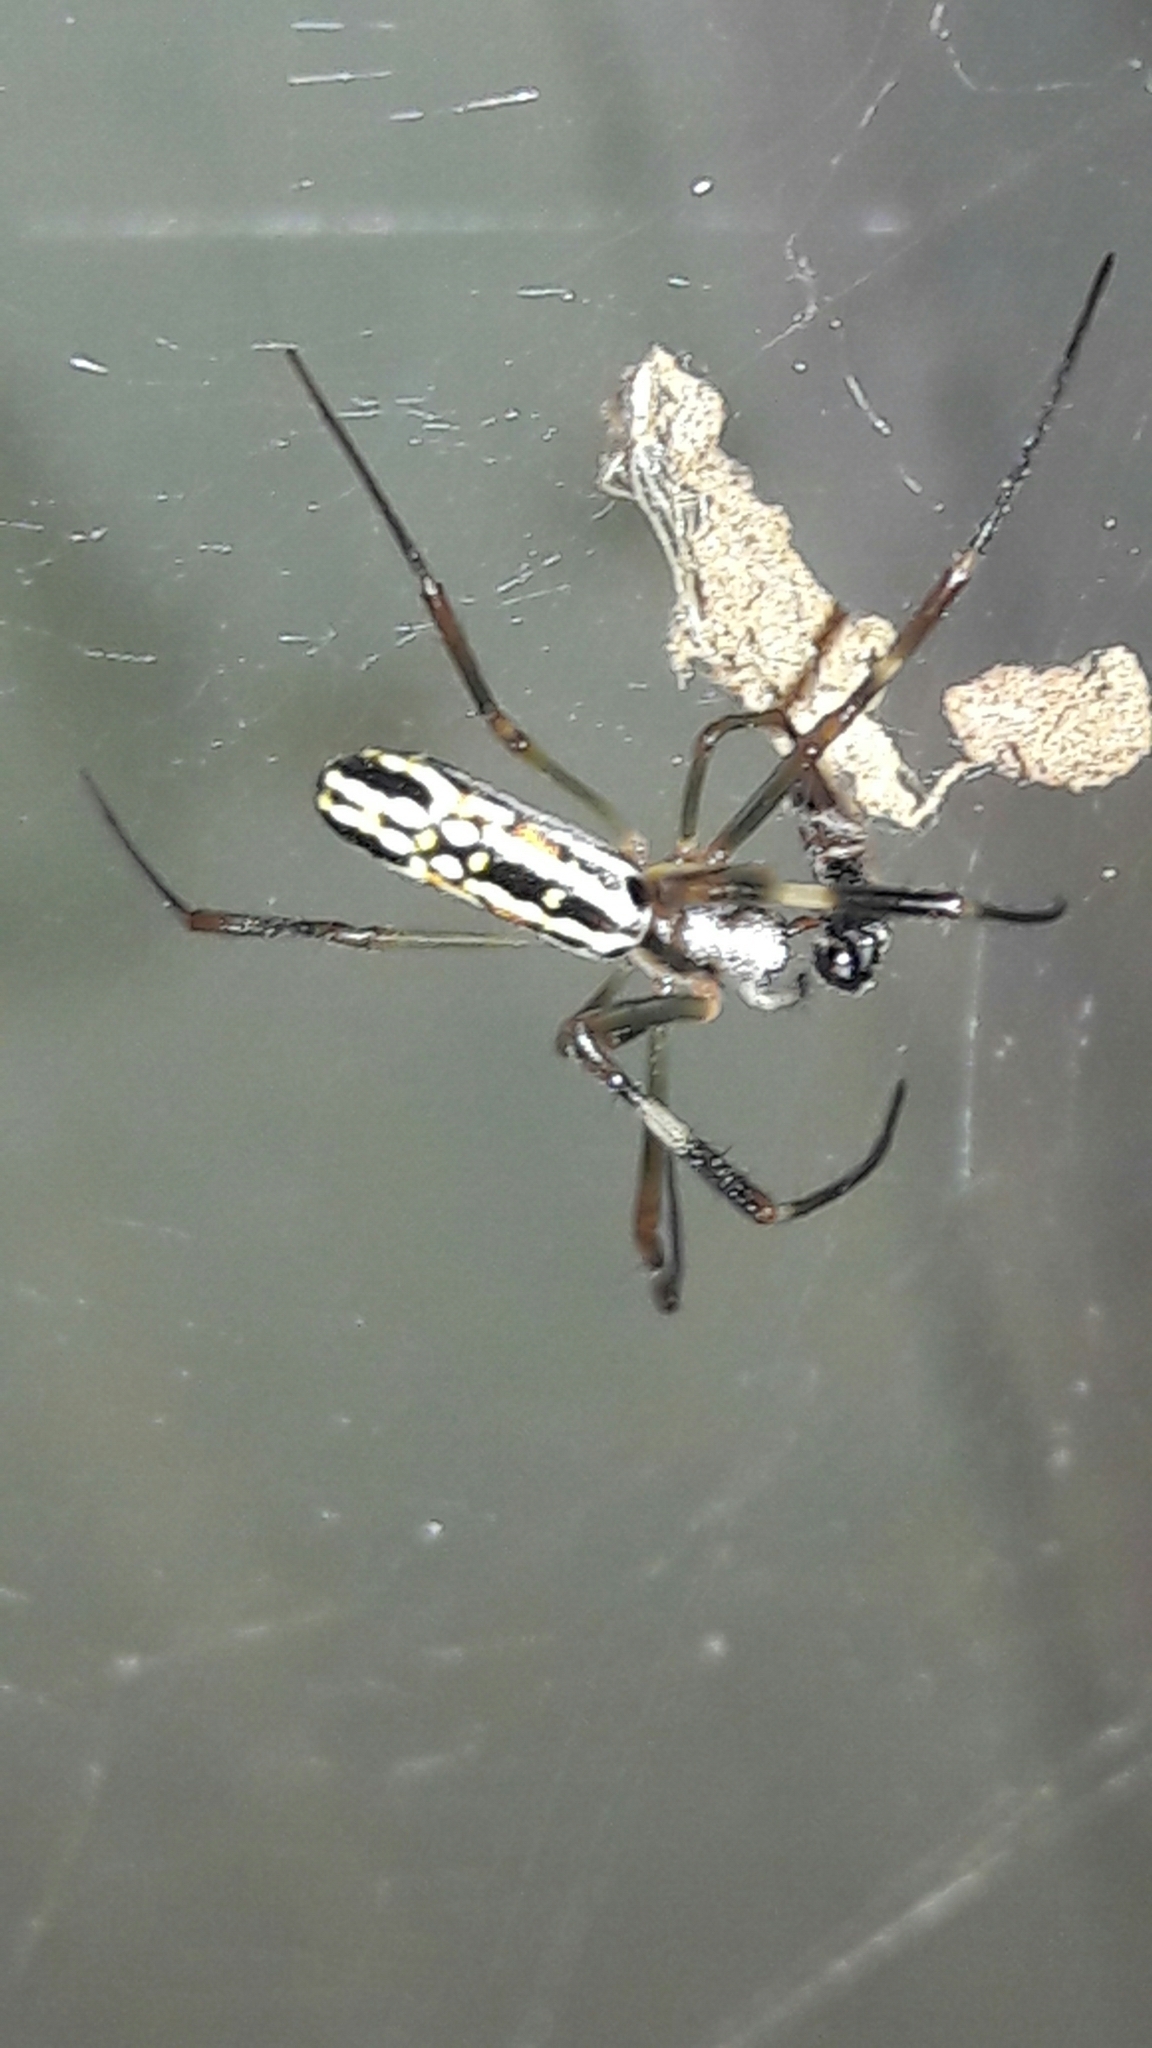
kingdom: Animalia
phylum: Arthropoda
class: Arachnida
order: Araneae
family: Araneidae
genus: Trichonephila
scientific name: Trichonephila clavipes
